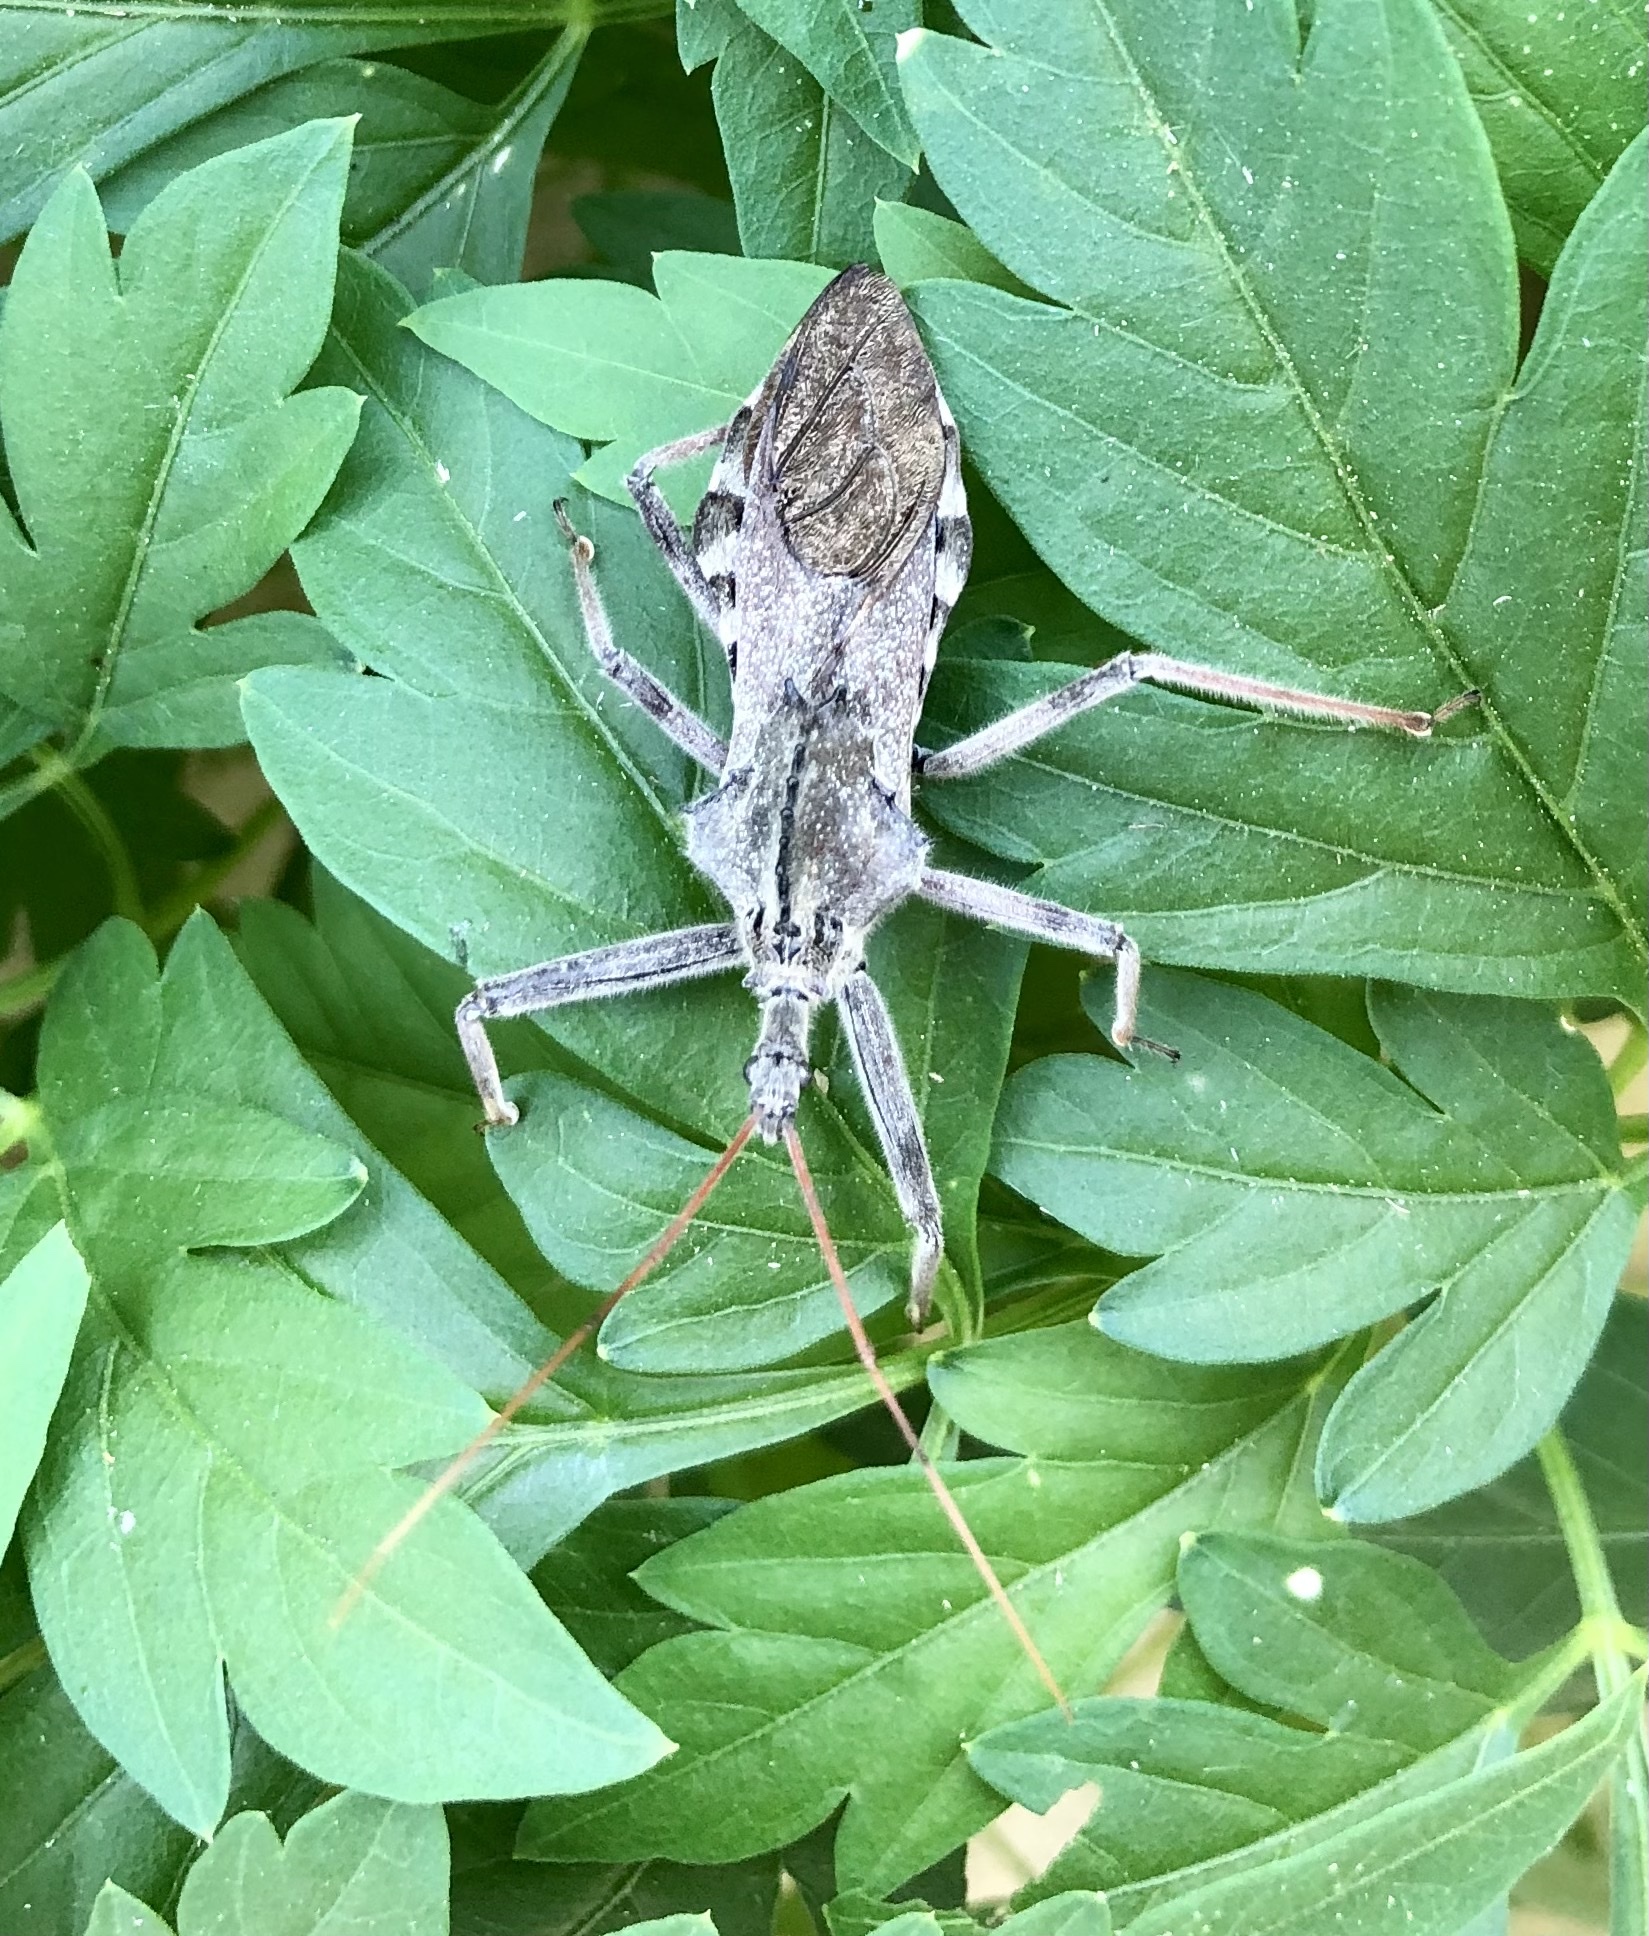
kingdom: Animalia
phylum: Arthropoda
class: Insecta
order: Hemiptera
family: Reduviidae
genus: Arilus
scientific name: Arilus cristatus
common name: North american wheel bug
